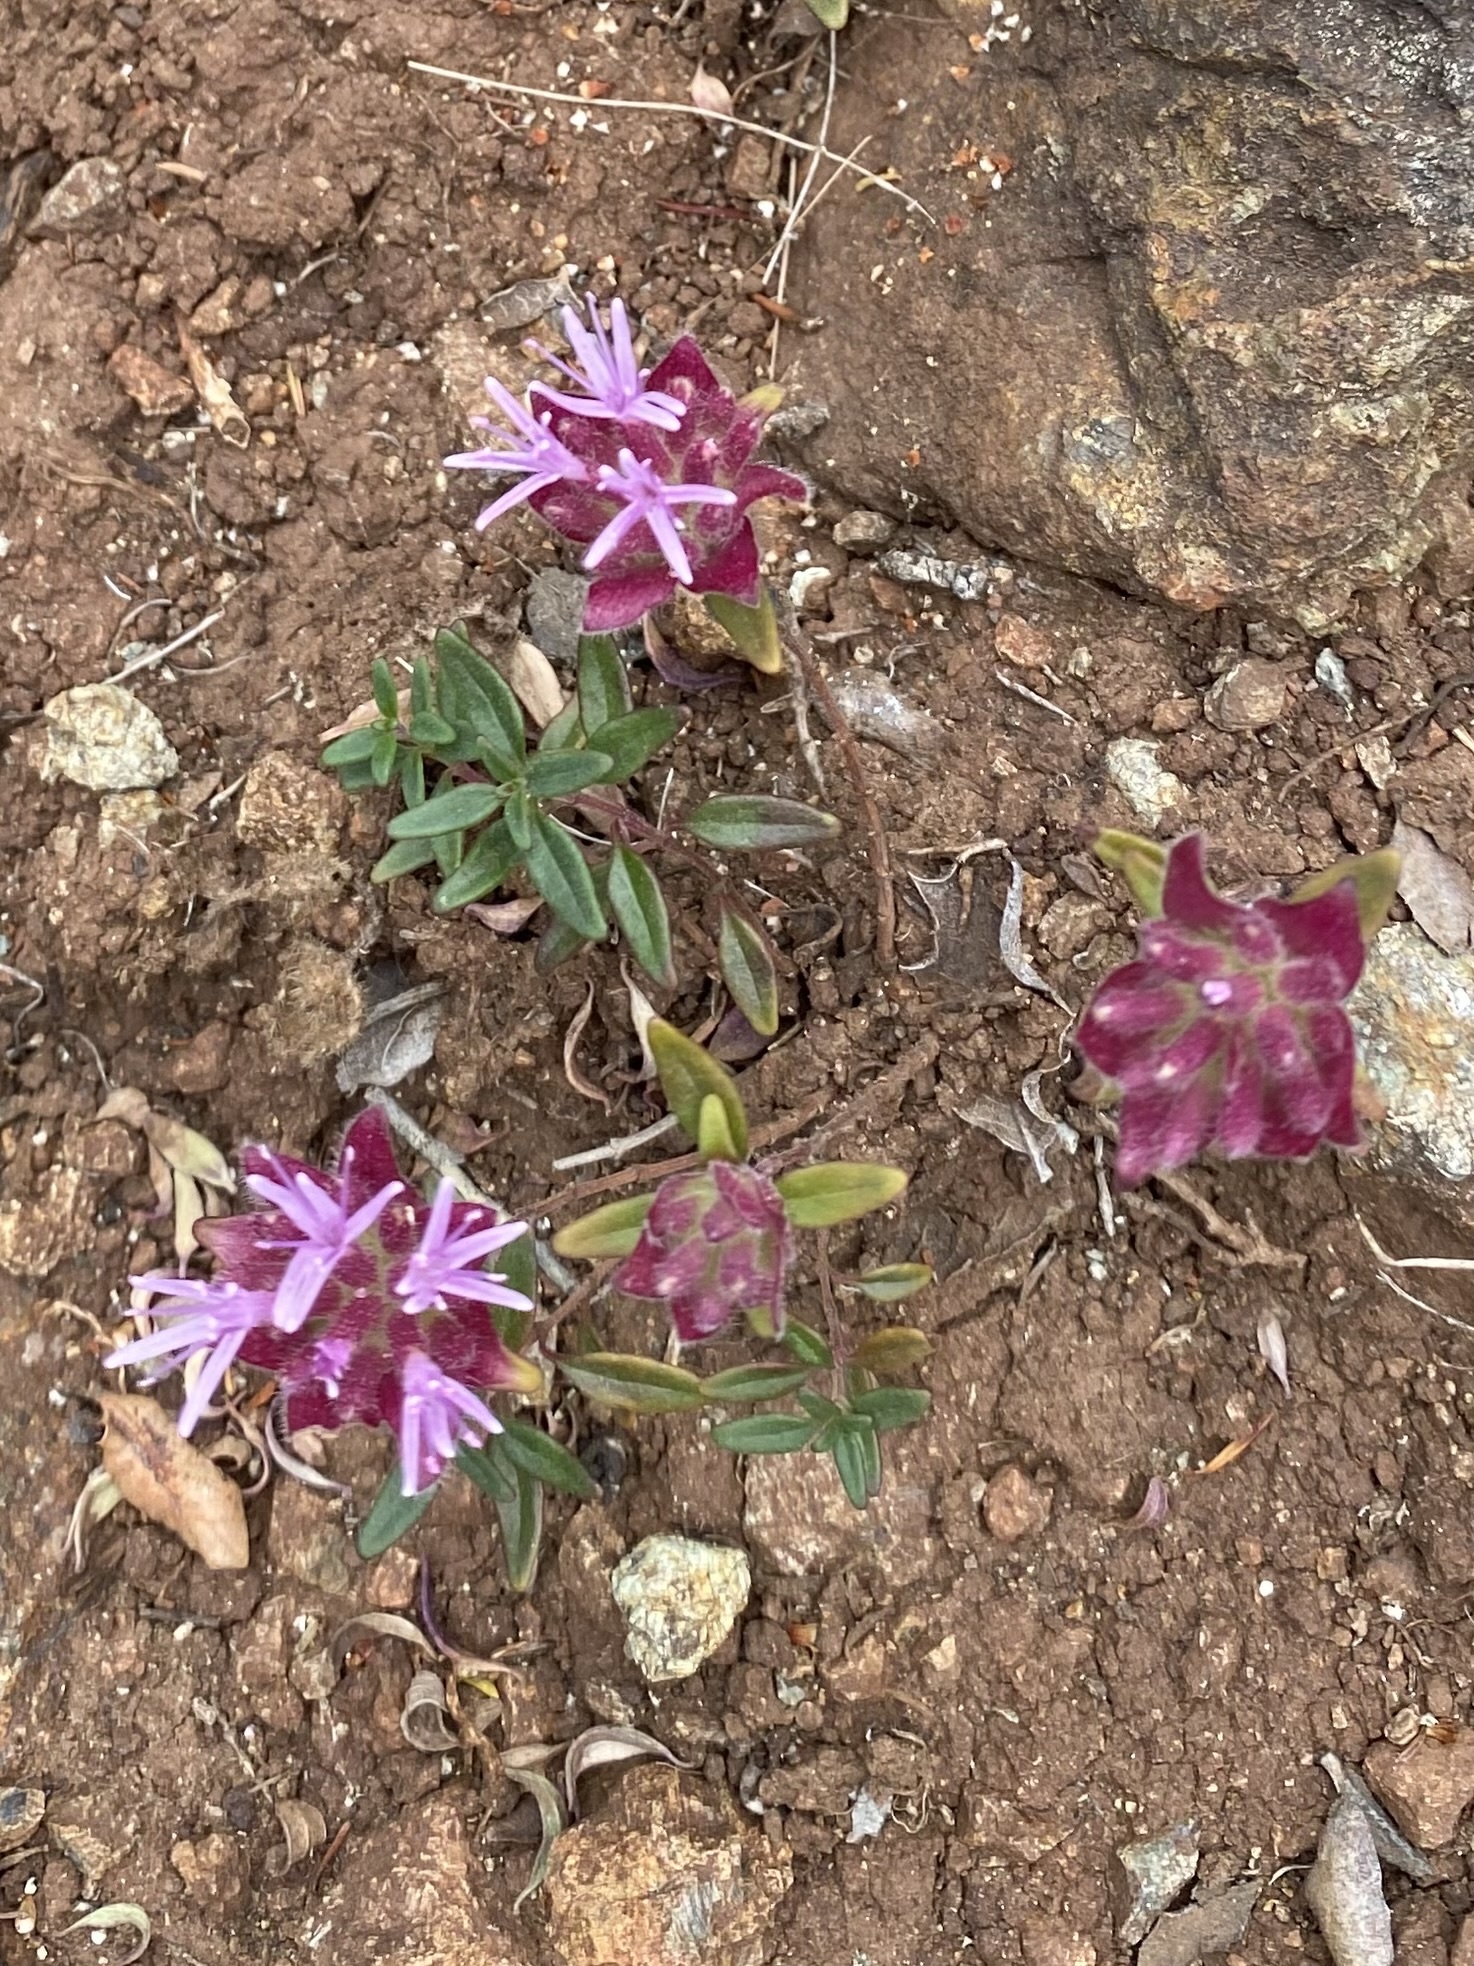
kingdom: Plantae
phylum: Tracheophyta
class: Magnoliopsida
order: Lamiales
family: Lamiaceae
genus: Monardella
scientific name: Monardella palmeri
